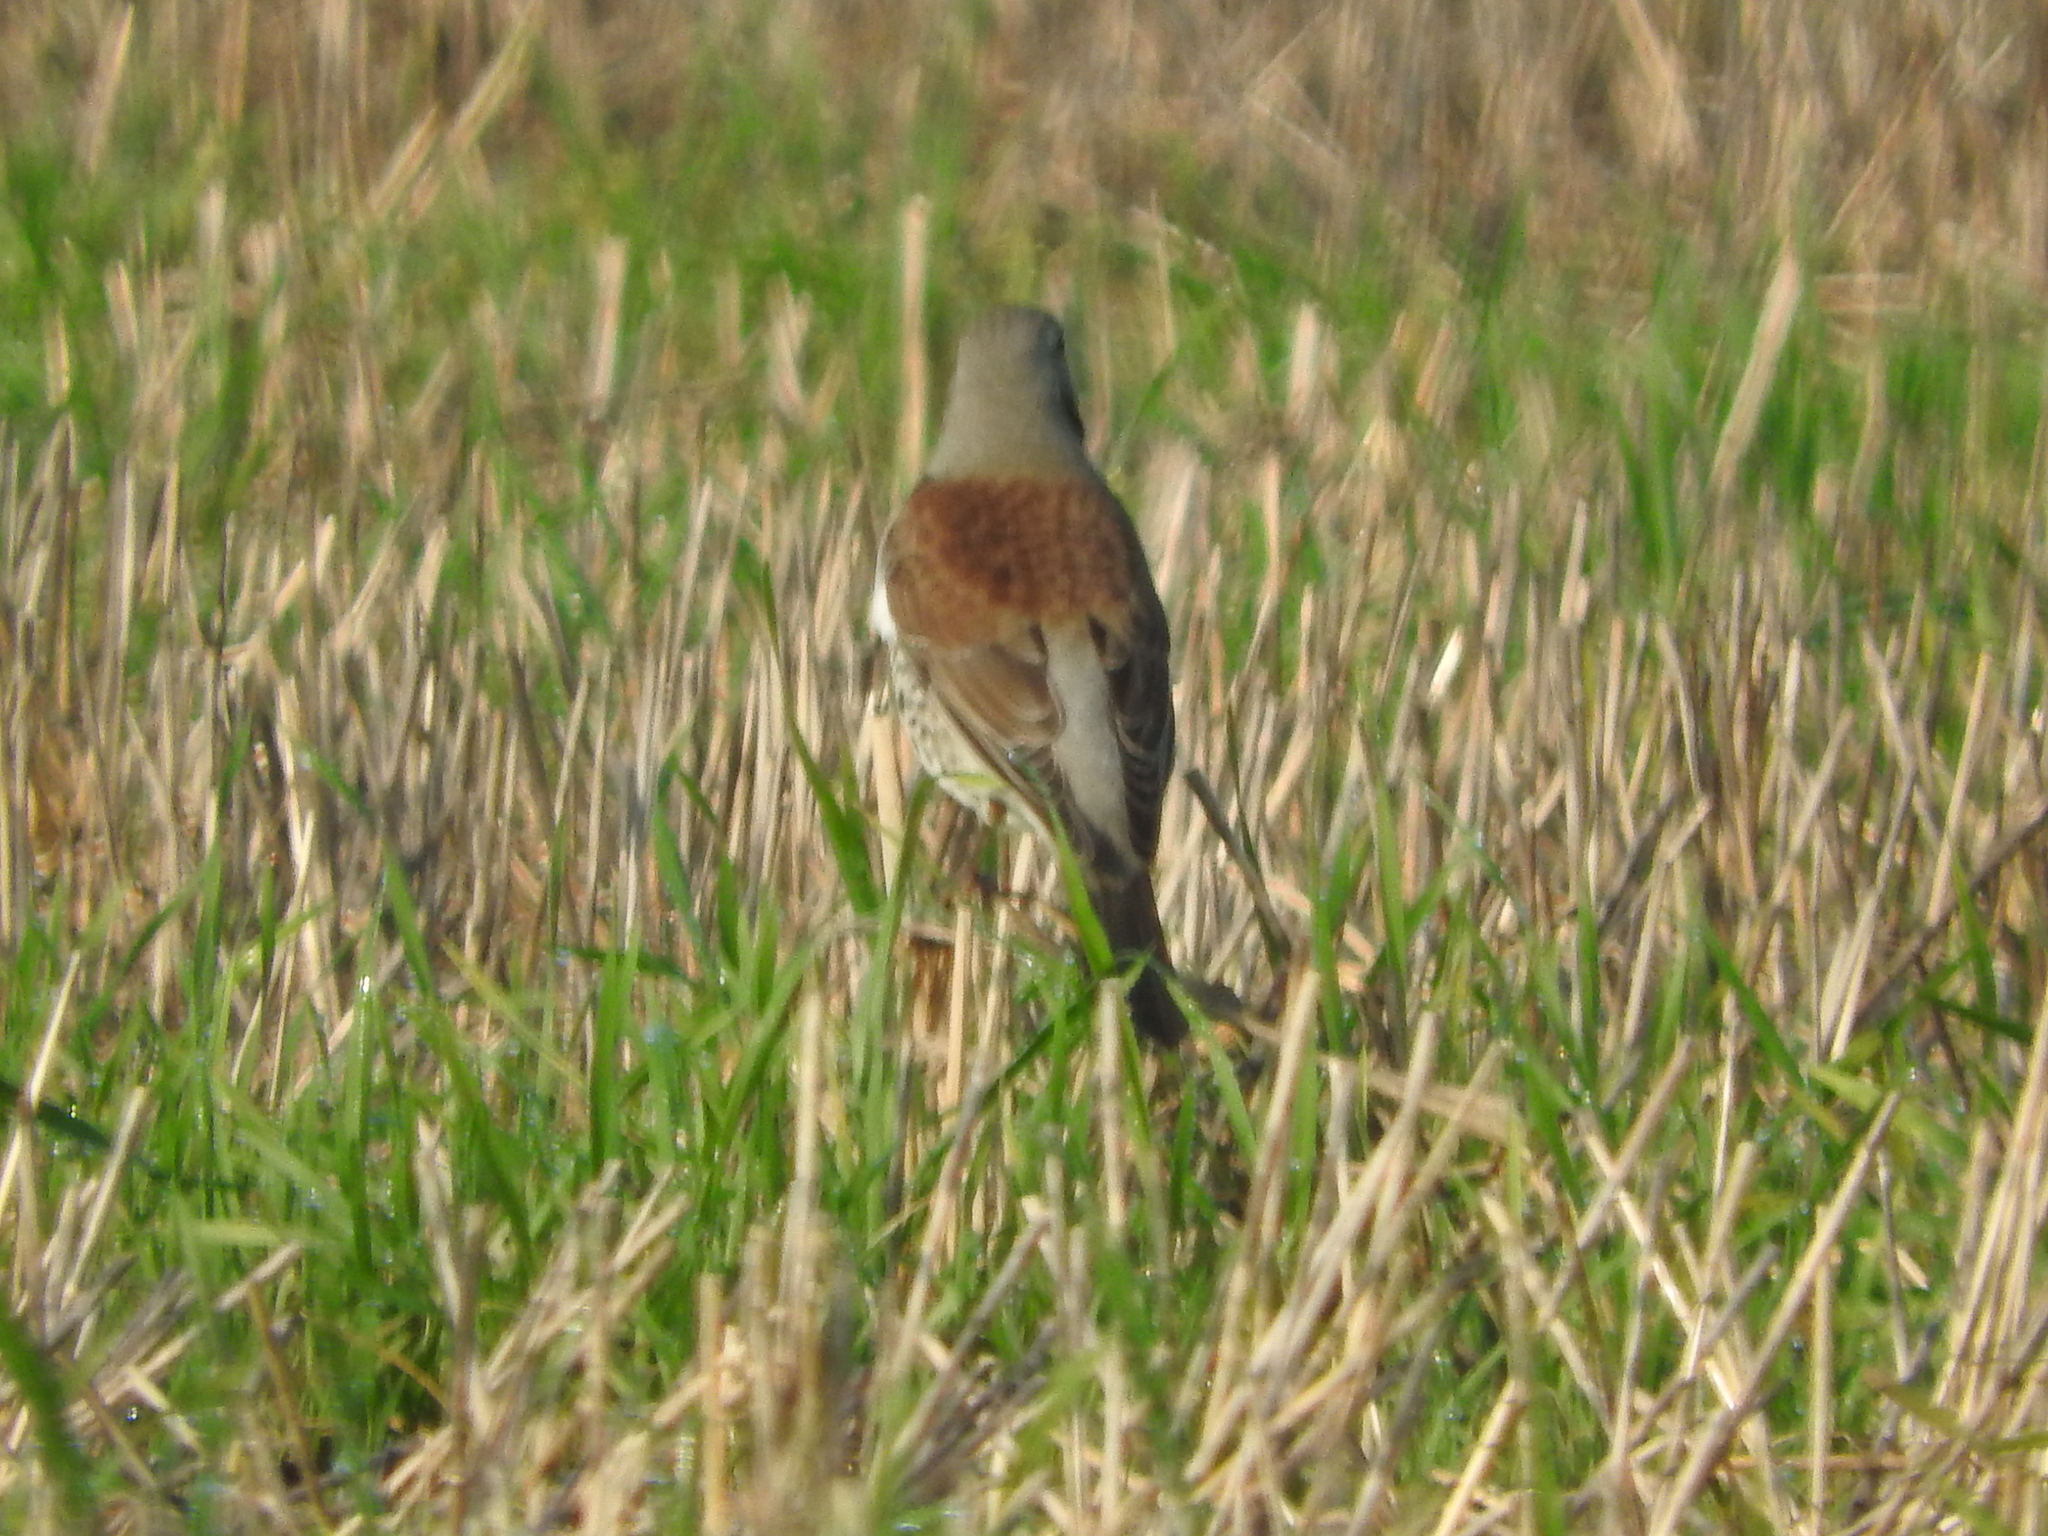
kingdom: Animalia
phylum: Chordata
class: Aves
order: Passeriformes
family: Turdidae
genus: Turdus
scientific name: Turdus pilaris
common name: Fieldfare
